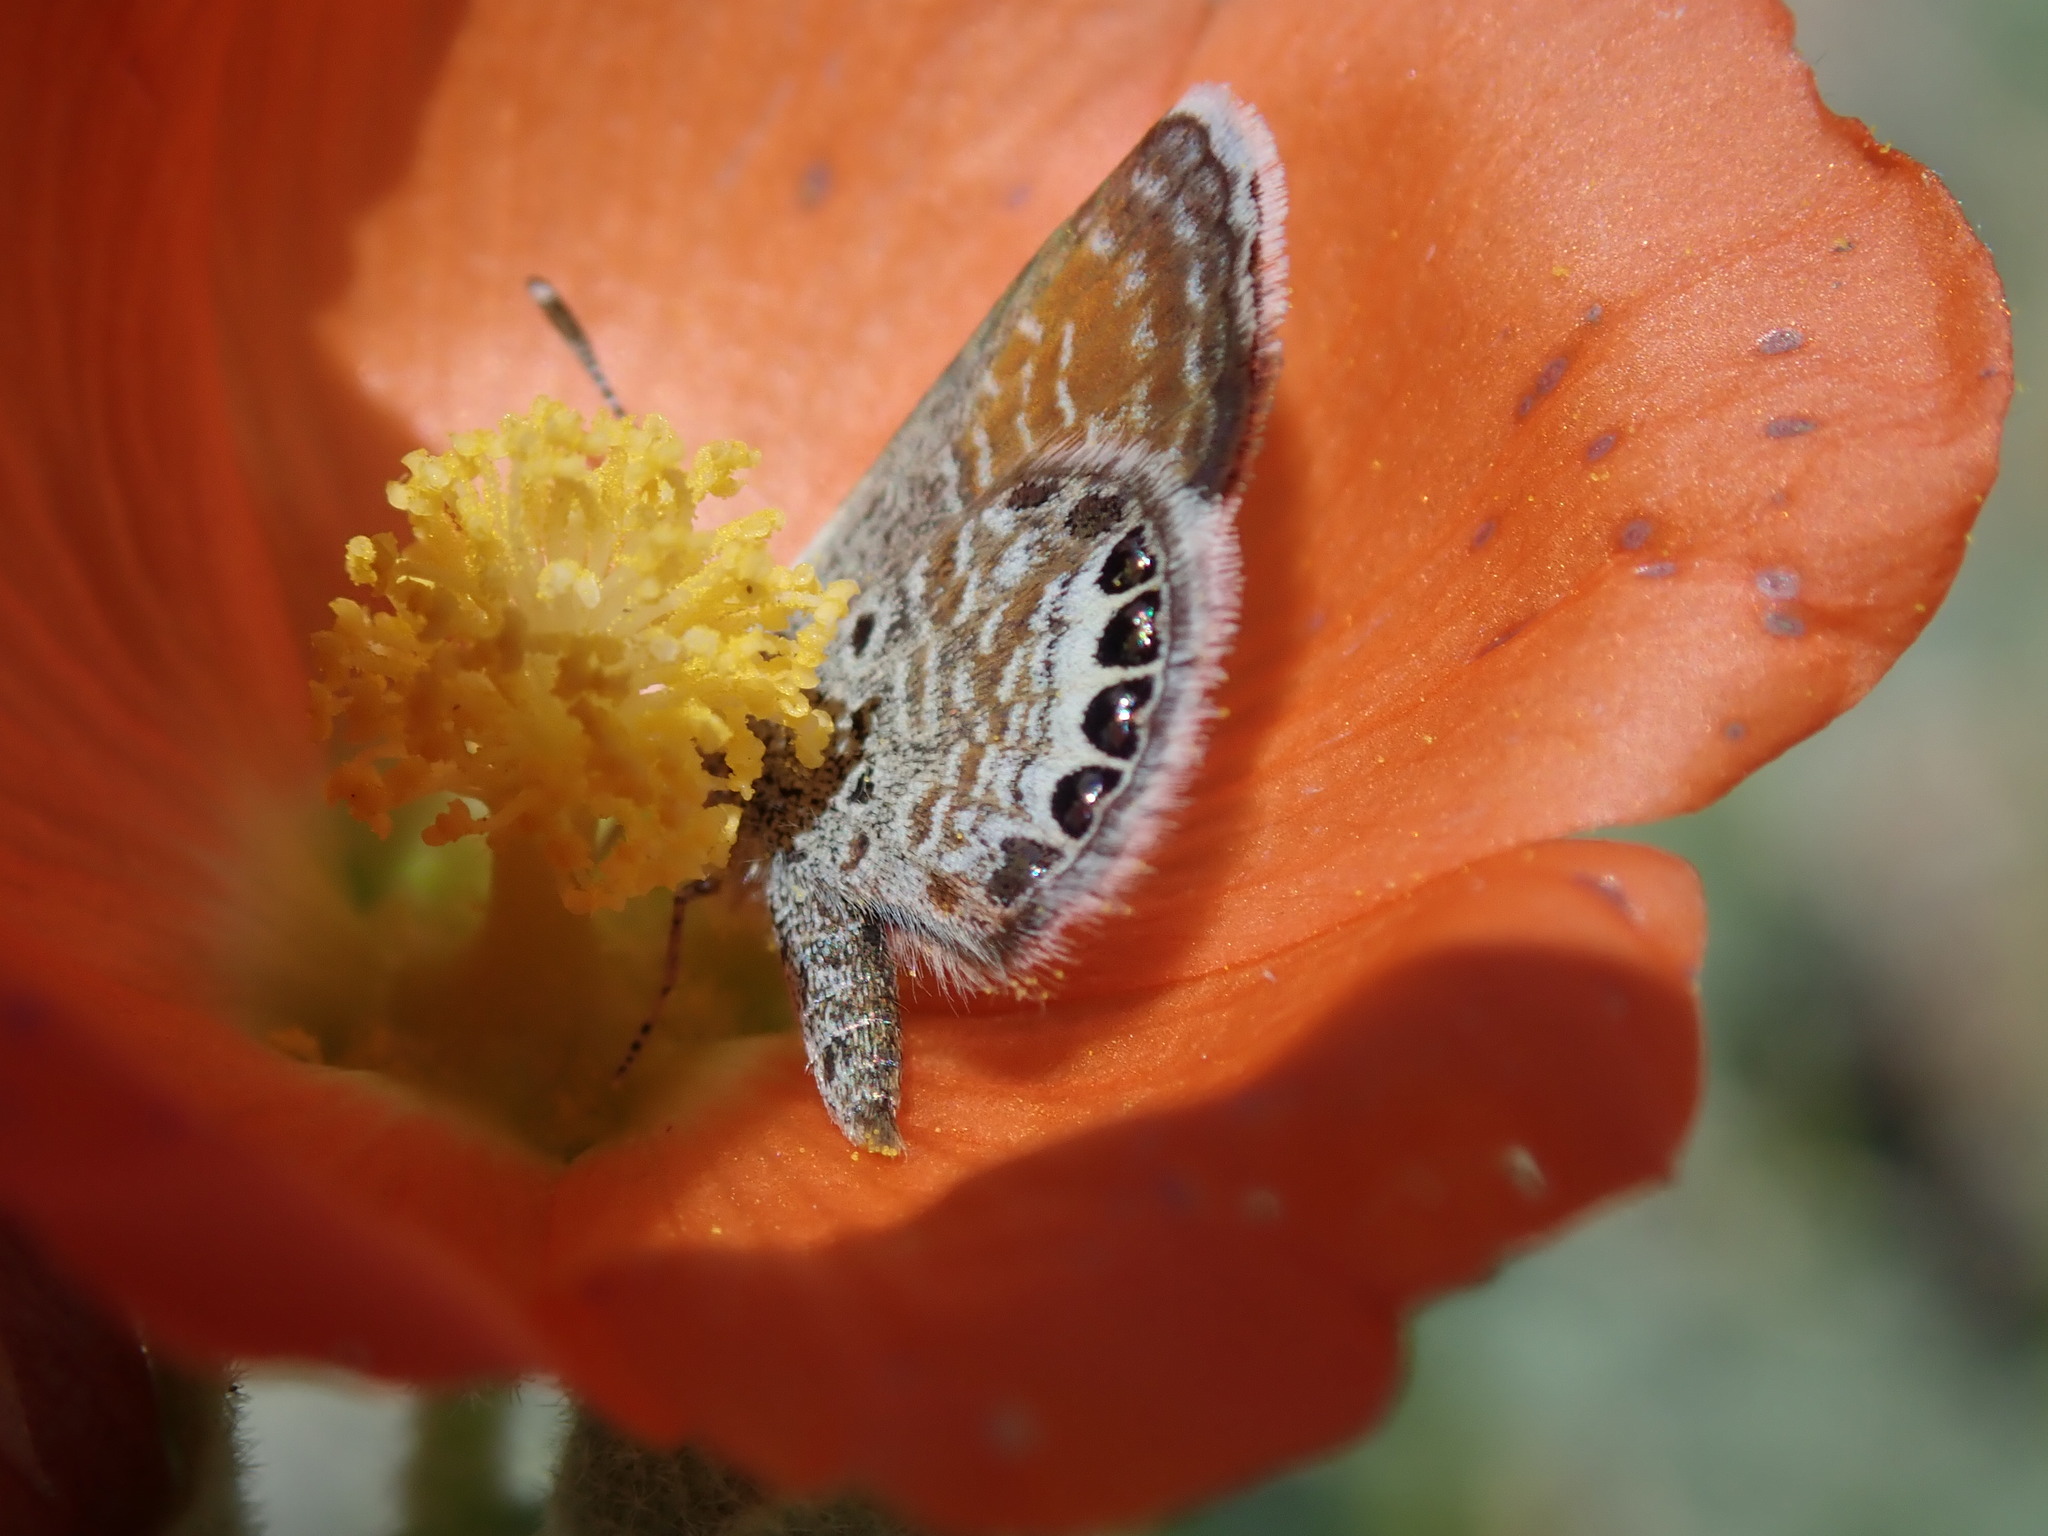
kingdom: Animalia
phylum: Arthropoda
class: Insecta
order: Lepidoptera
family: Lycaenidae
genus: Brephidium
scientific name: Brephidium exilis
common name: Pygmy blue
